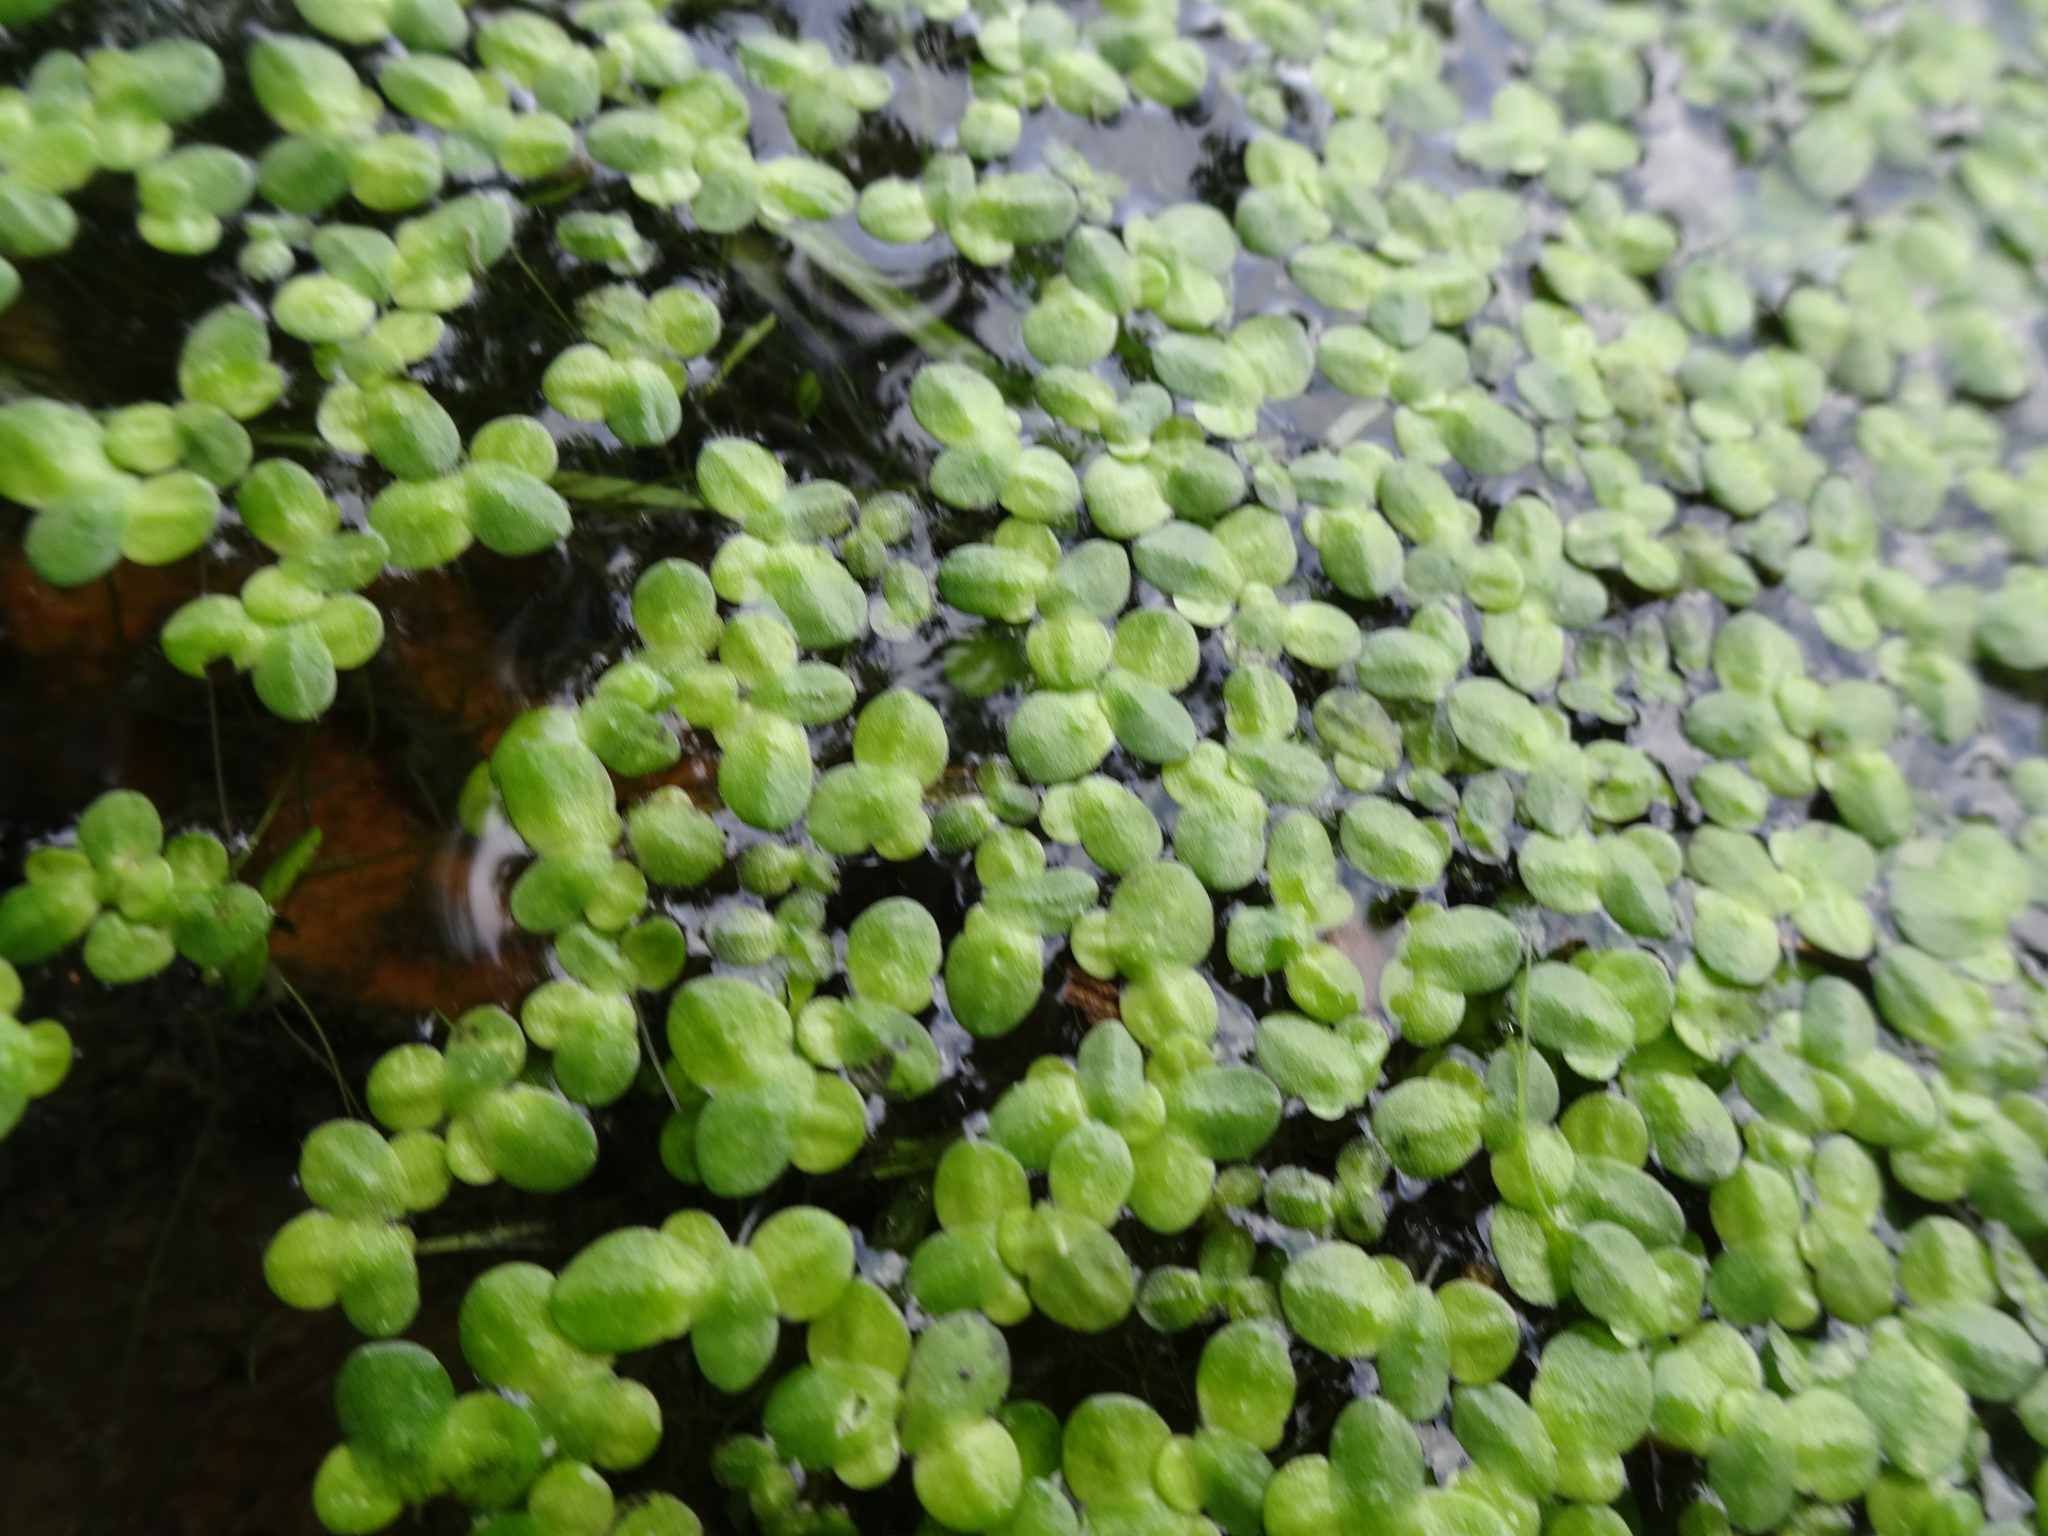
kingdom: Plantae
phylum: Tracheophyta
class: Liliopsida
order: Alismatales
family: Araceae
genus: Lemna
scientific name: Lemna minor
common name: Common duckweed
